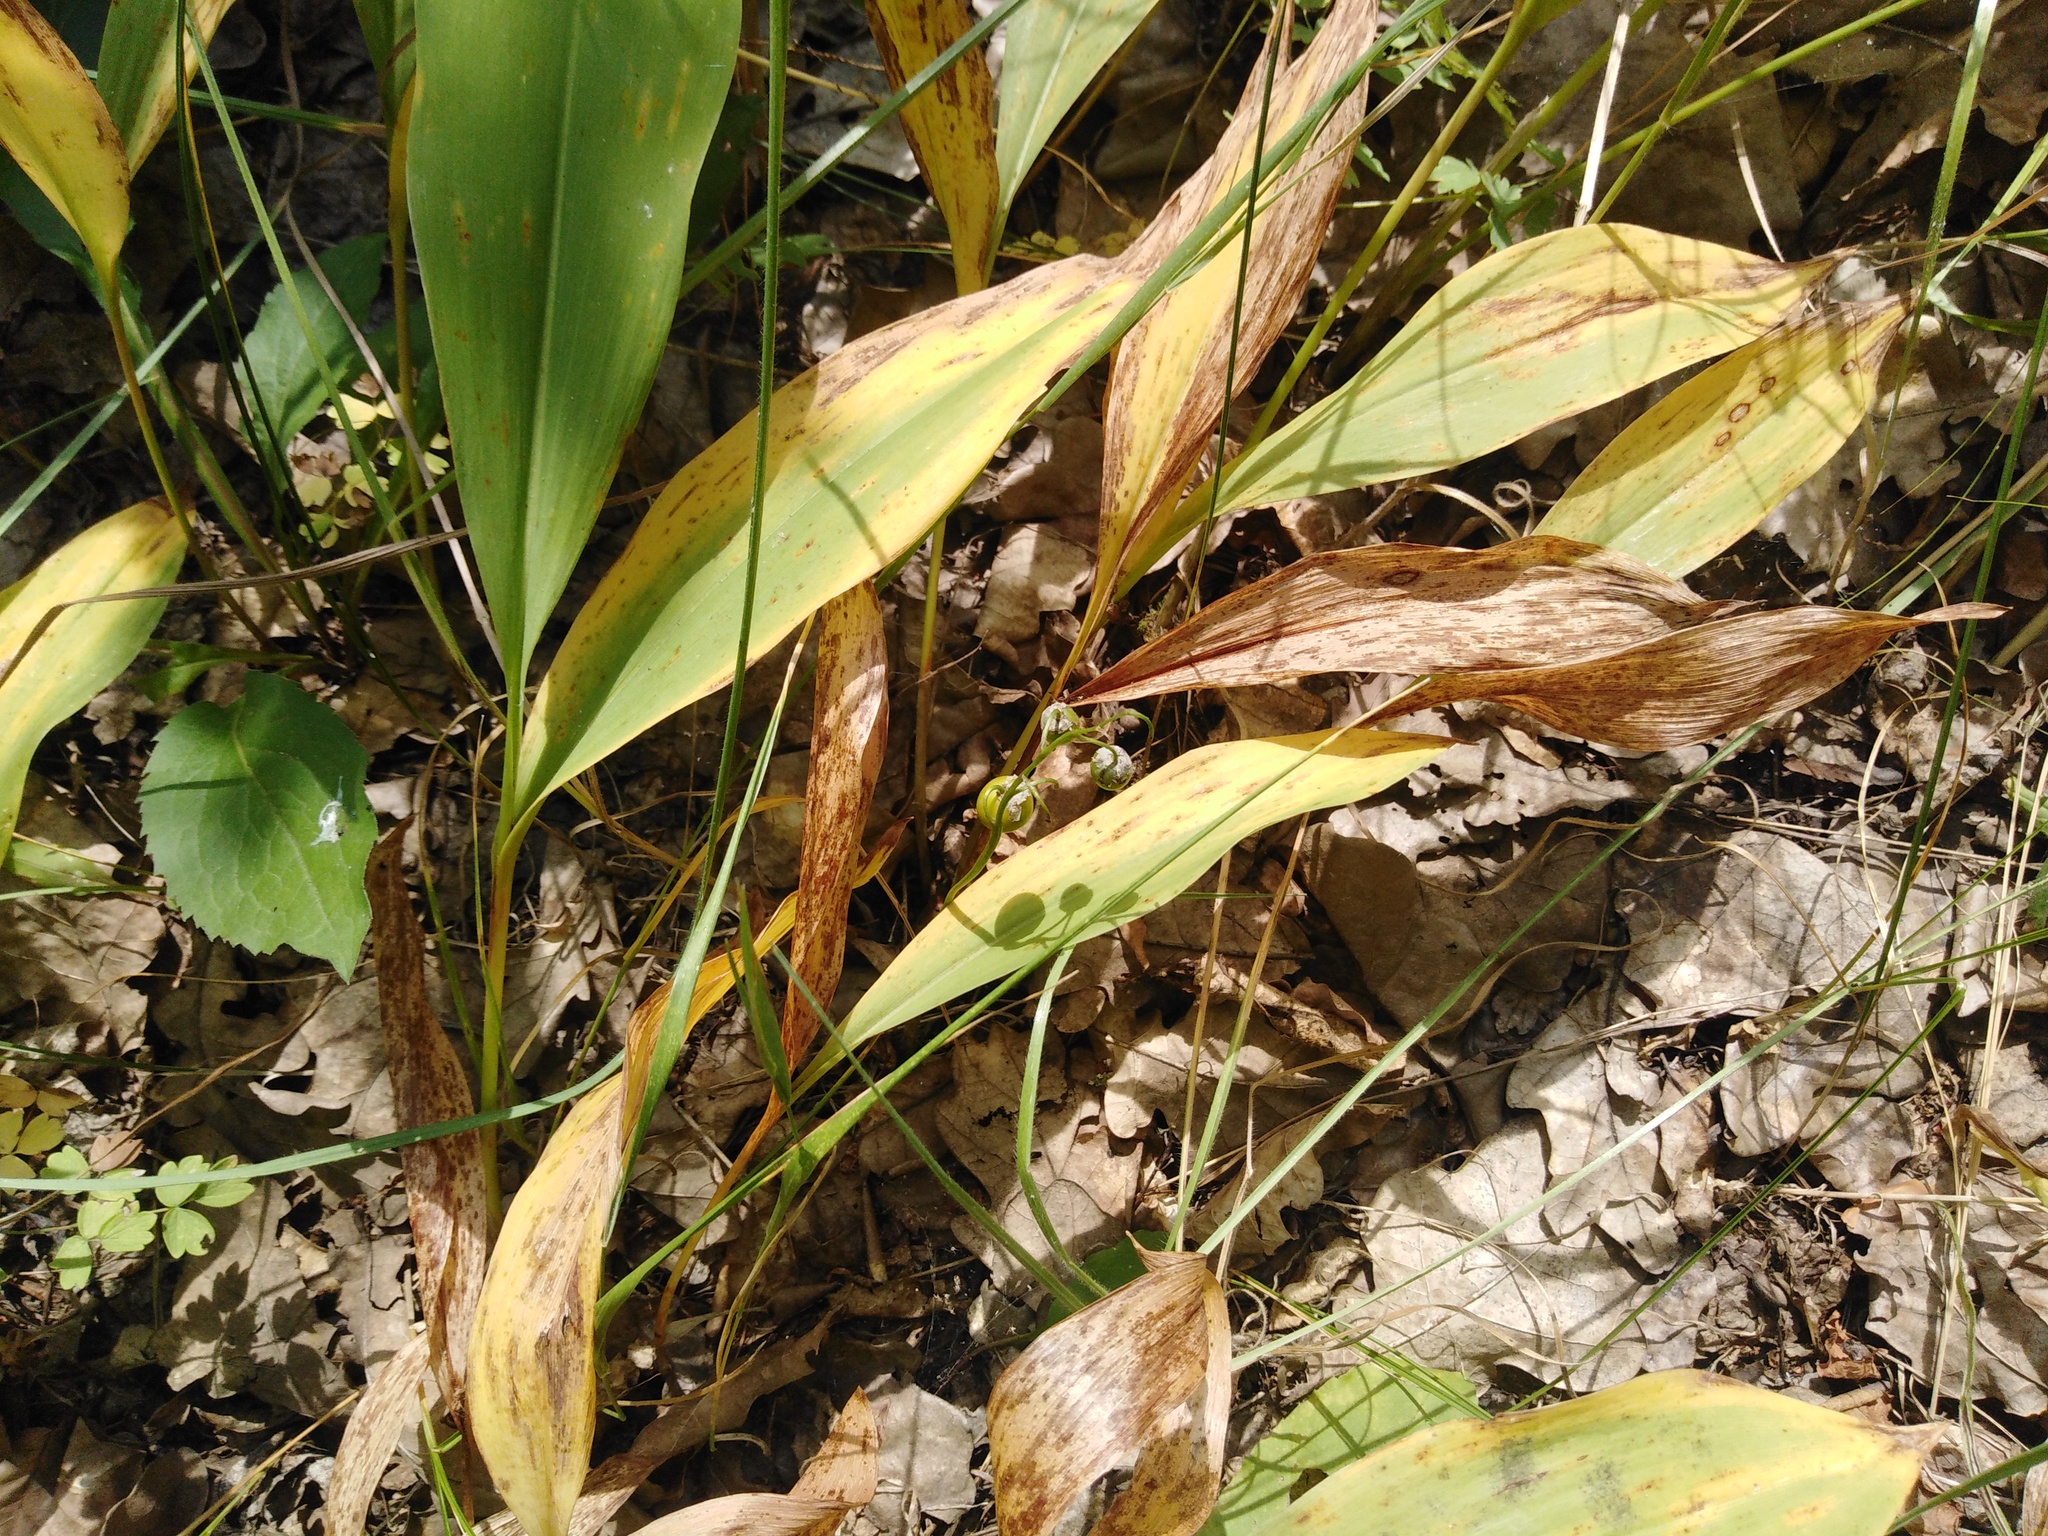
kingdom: Plantae
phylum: Tracheophyta
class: Liliopsida
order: Asparagales
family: Asparagaceae
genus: Convallaria
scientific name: Convallaria majalis
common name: Lily-of-the-valley
